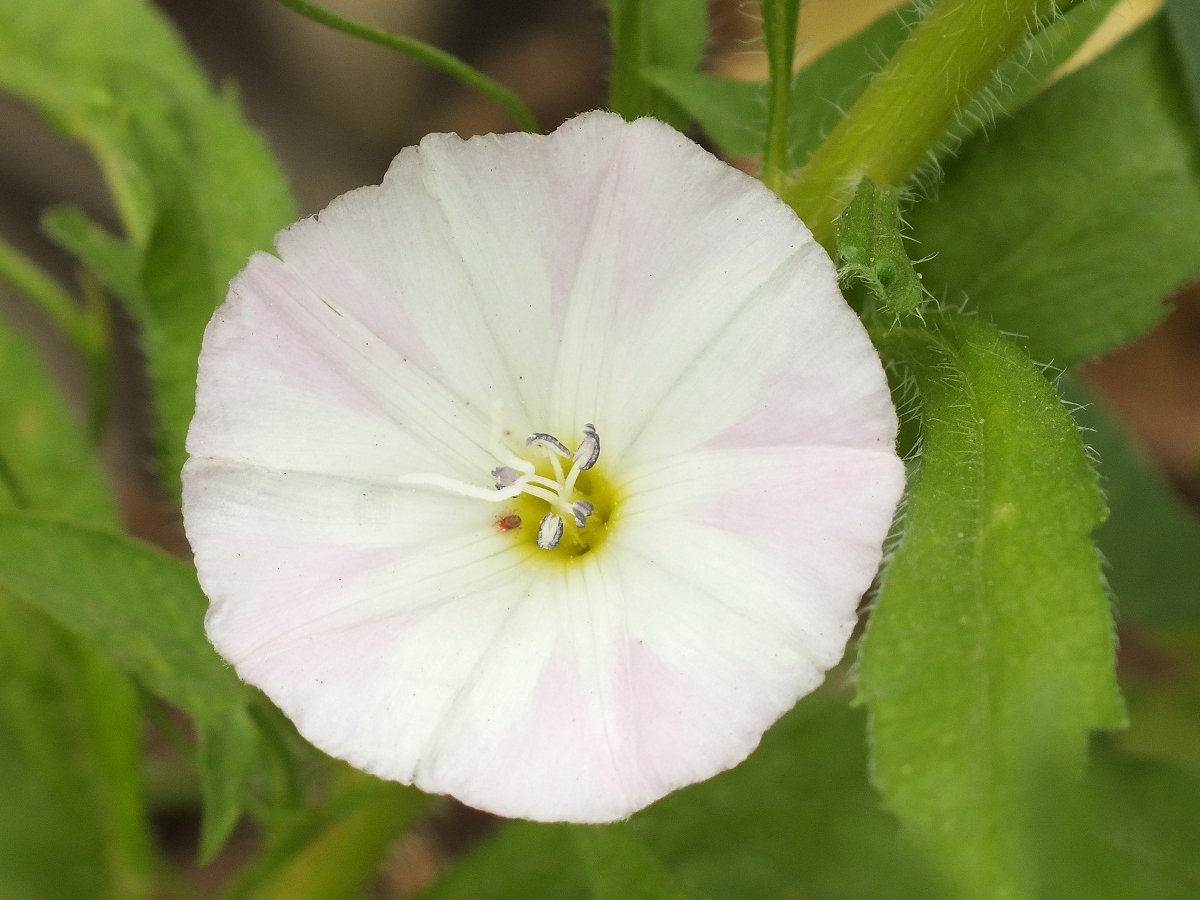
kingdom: Plantae
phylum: Tracheophyta
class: Magnoliopsida
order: Solanales
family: Convolvulaceae
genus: Convolvulus
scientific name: Convolvulus arvensis
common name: Field bindweed
